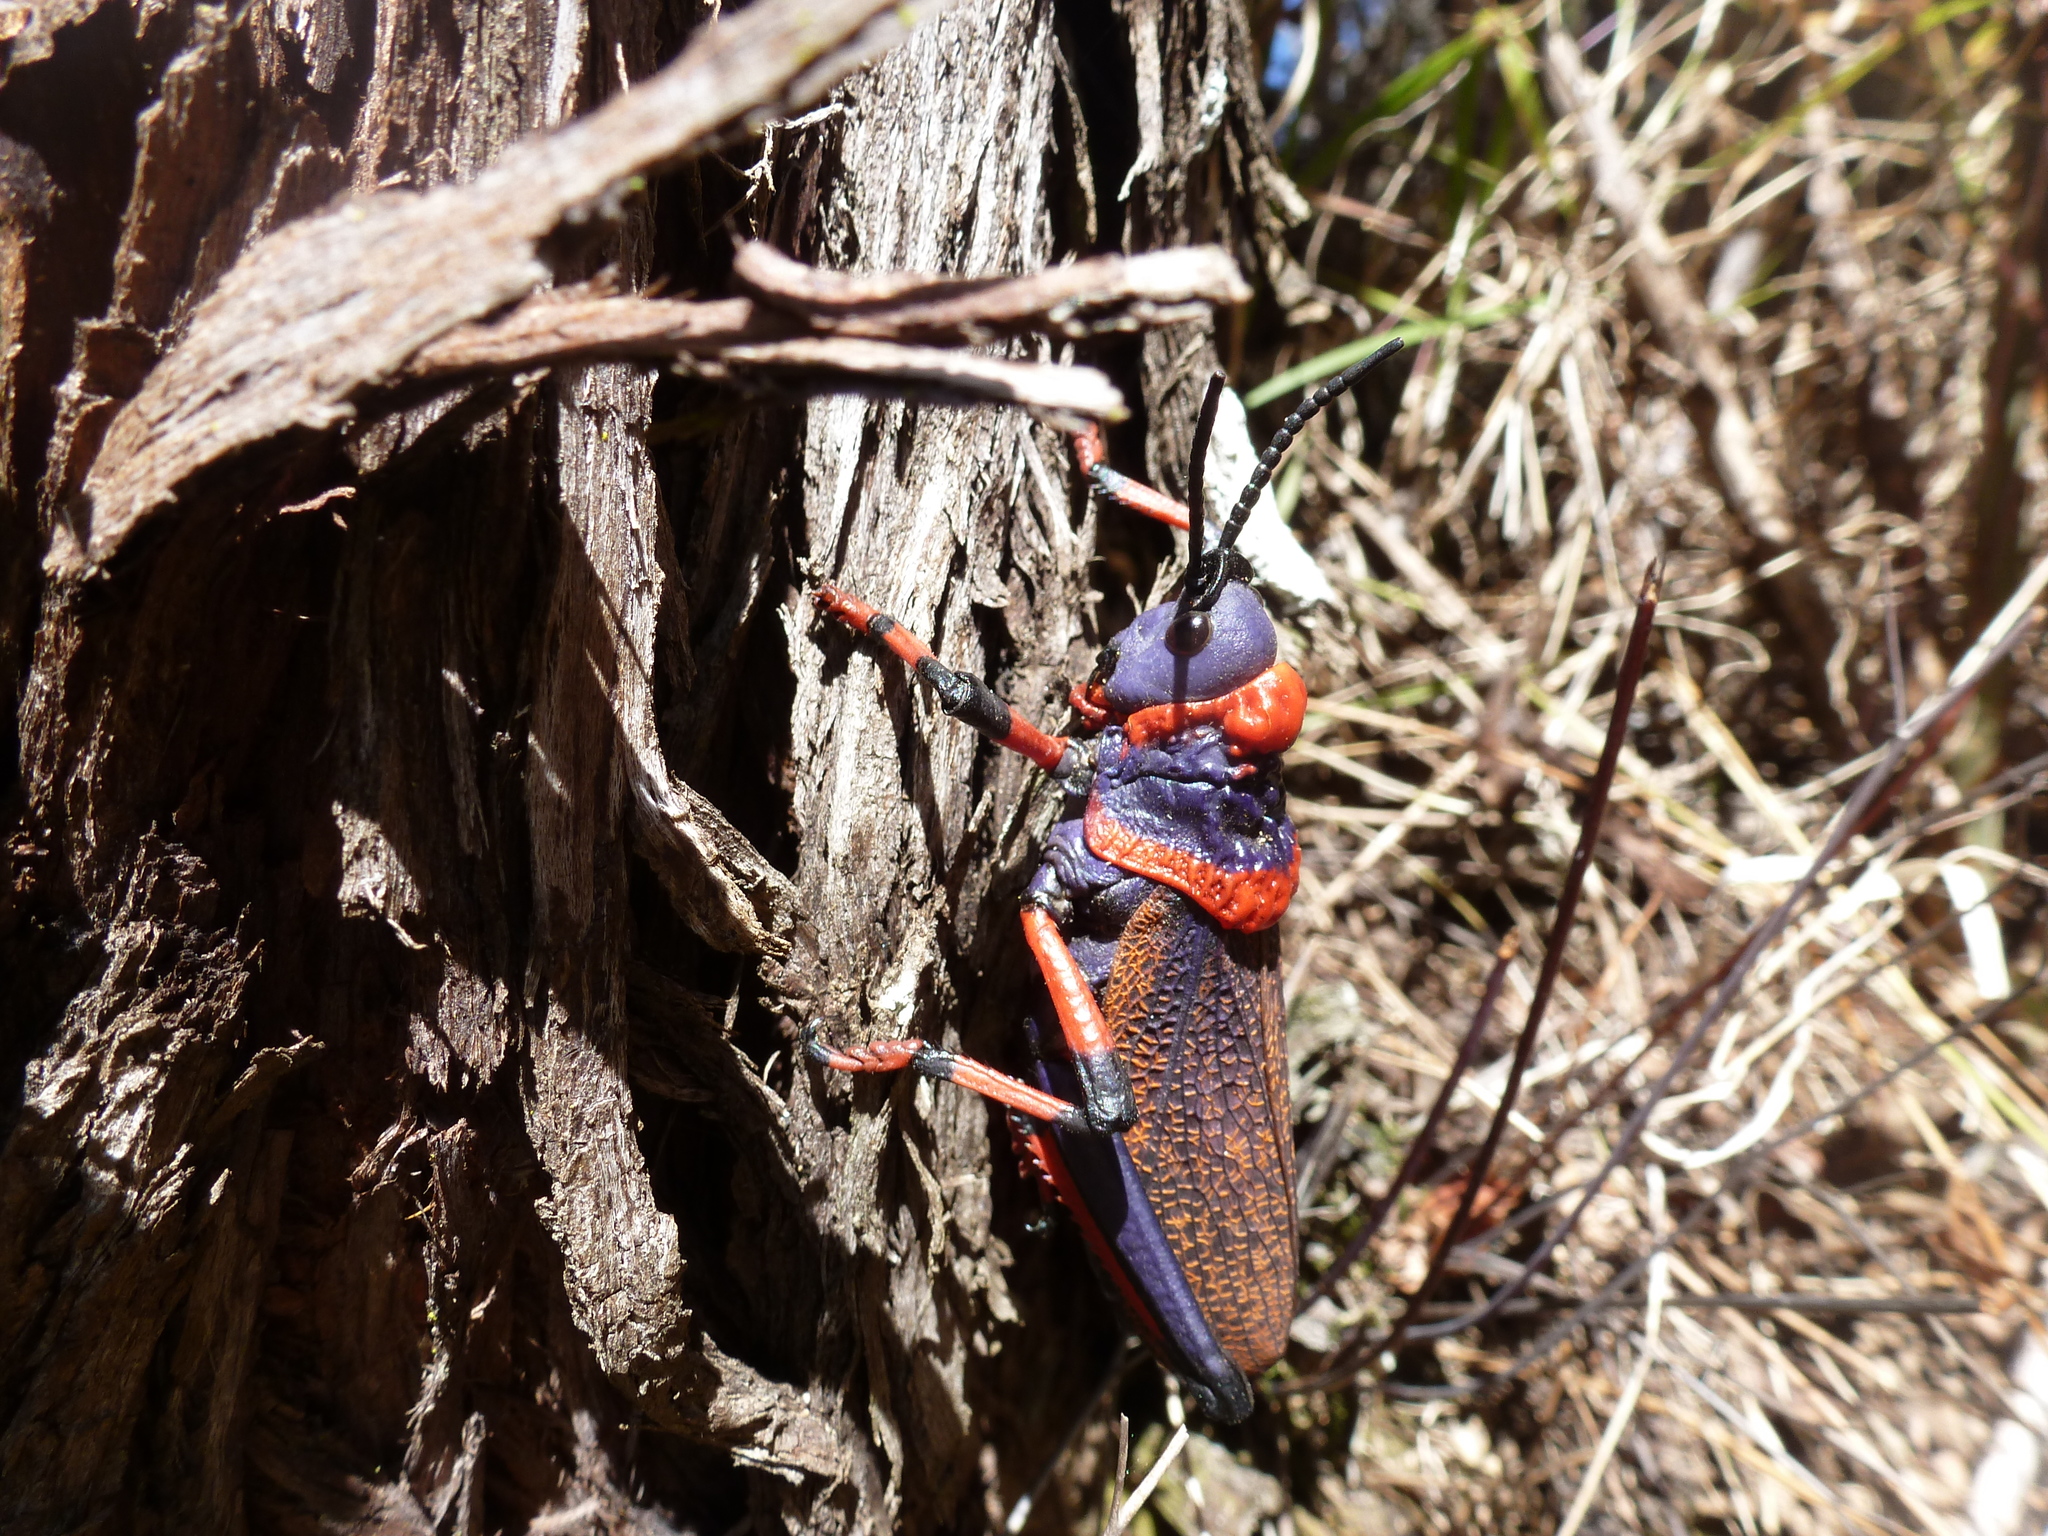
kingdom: Animalia
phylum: Arthropoda
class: Insecta
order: Orthoptera
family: Pyrgomorphidae
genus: Dictyophorus
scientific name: Dictyophorus spumans
